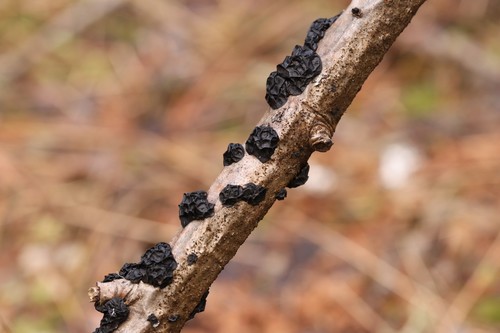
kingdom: Fungi
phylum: Basidiomycota
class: Agaricomycetes
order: Auriculariales
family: Auriculariaceae
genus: Exidia
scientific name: Exidia glandulosa
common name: Witches' butter
